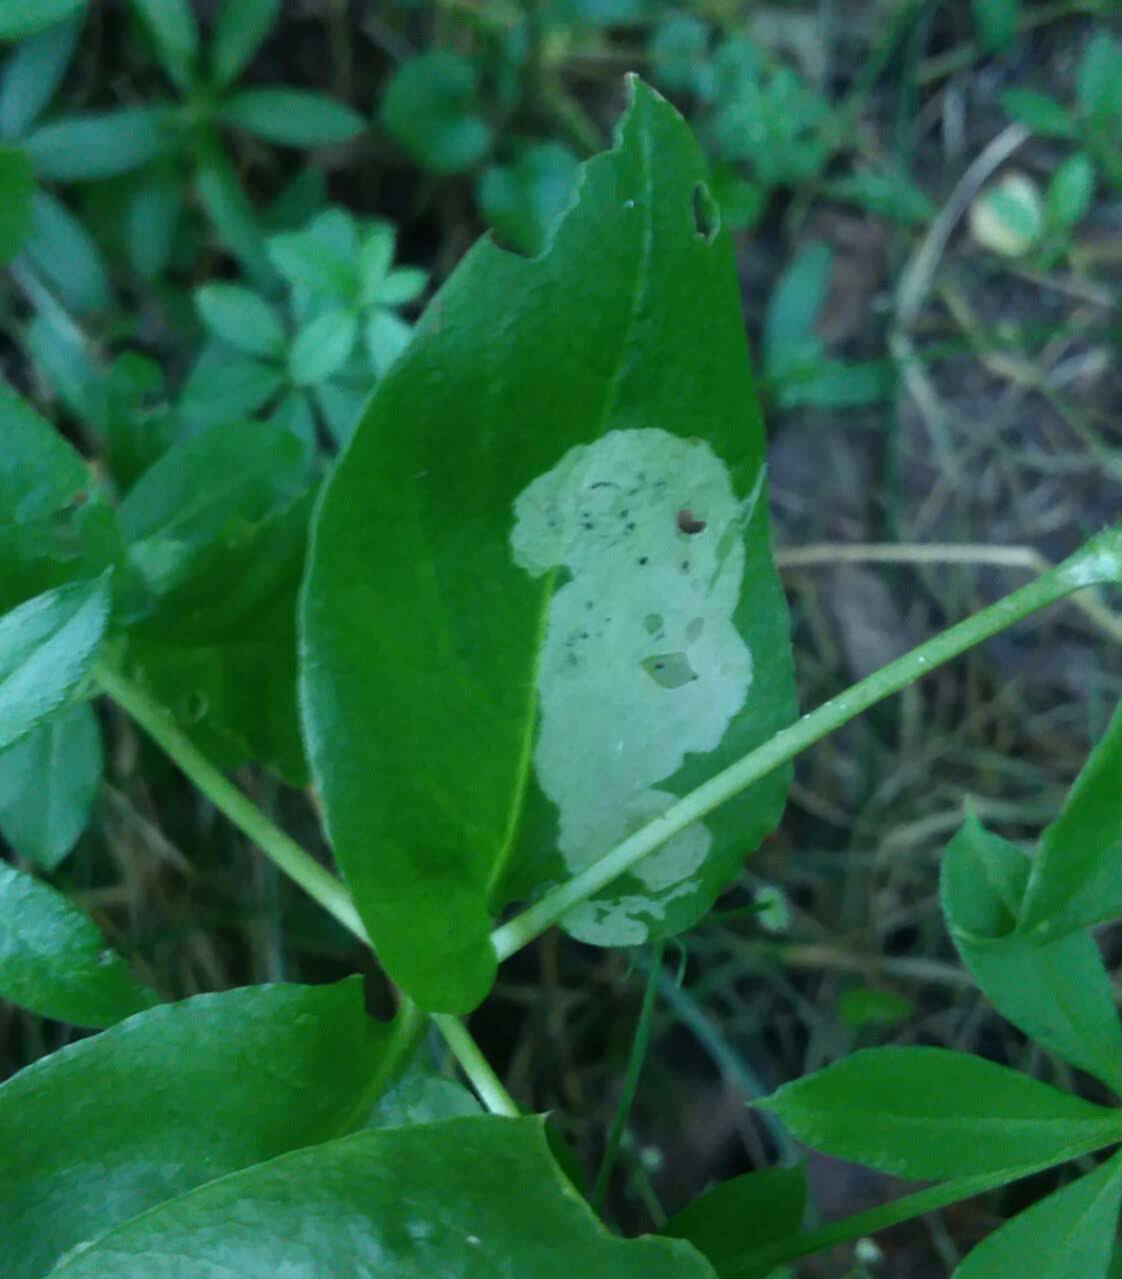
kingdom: Animalia
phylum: Arthropoda
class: Insecta
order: Diptera
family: Agromyzidae
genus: Amauromyza
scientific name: Amauromyza flavifrons
